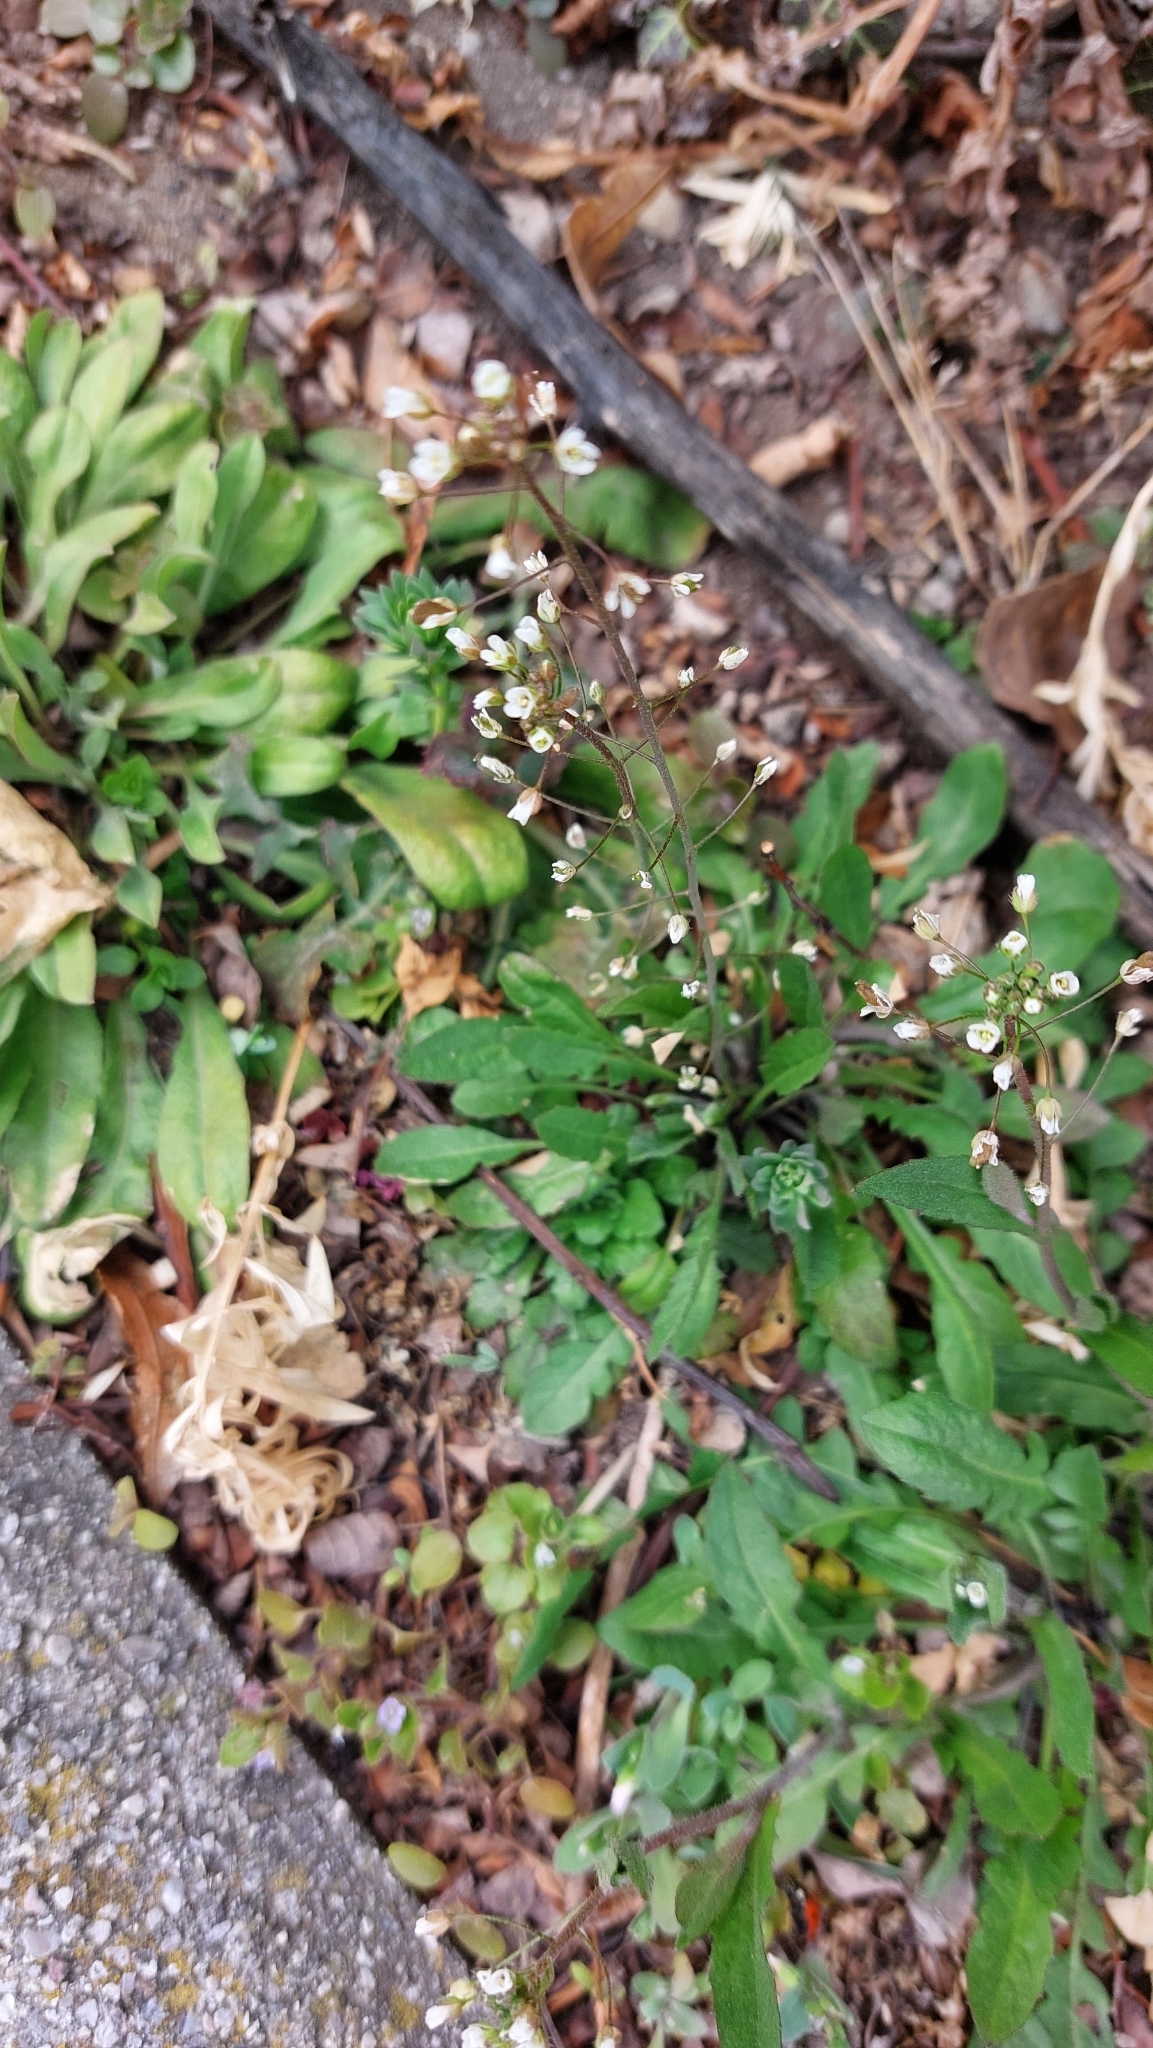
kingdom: Plantae
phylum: Tracheophyta
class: Magnoliopsida
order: Brassicales
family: Brassicaceae
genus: Capsella
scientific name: Capsella bursa-pastoris
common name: Shepherd's purse
